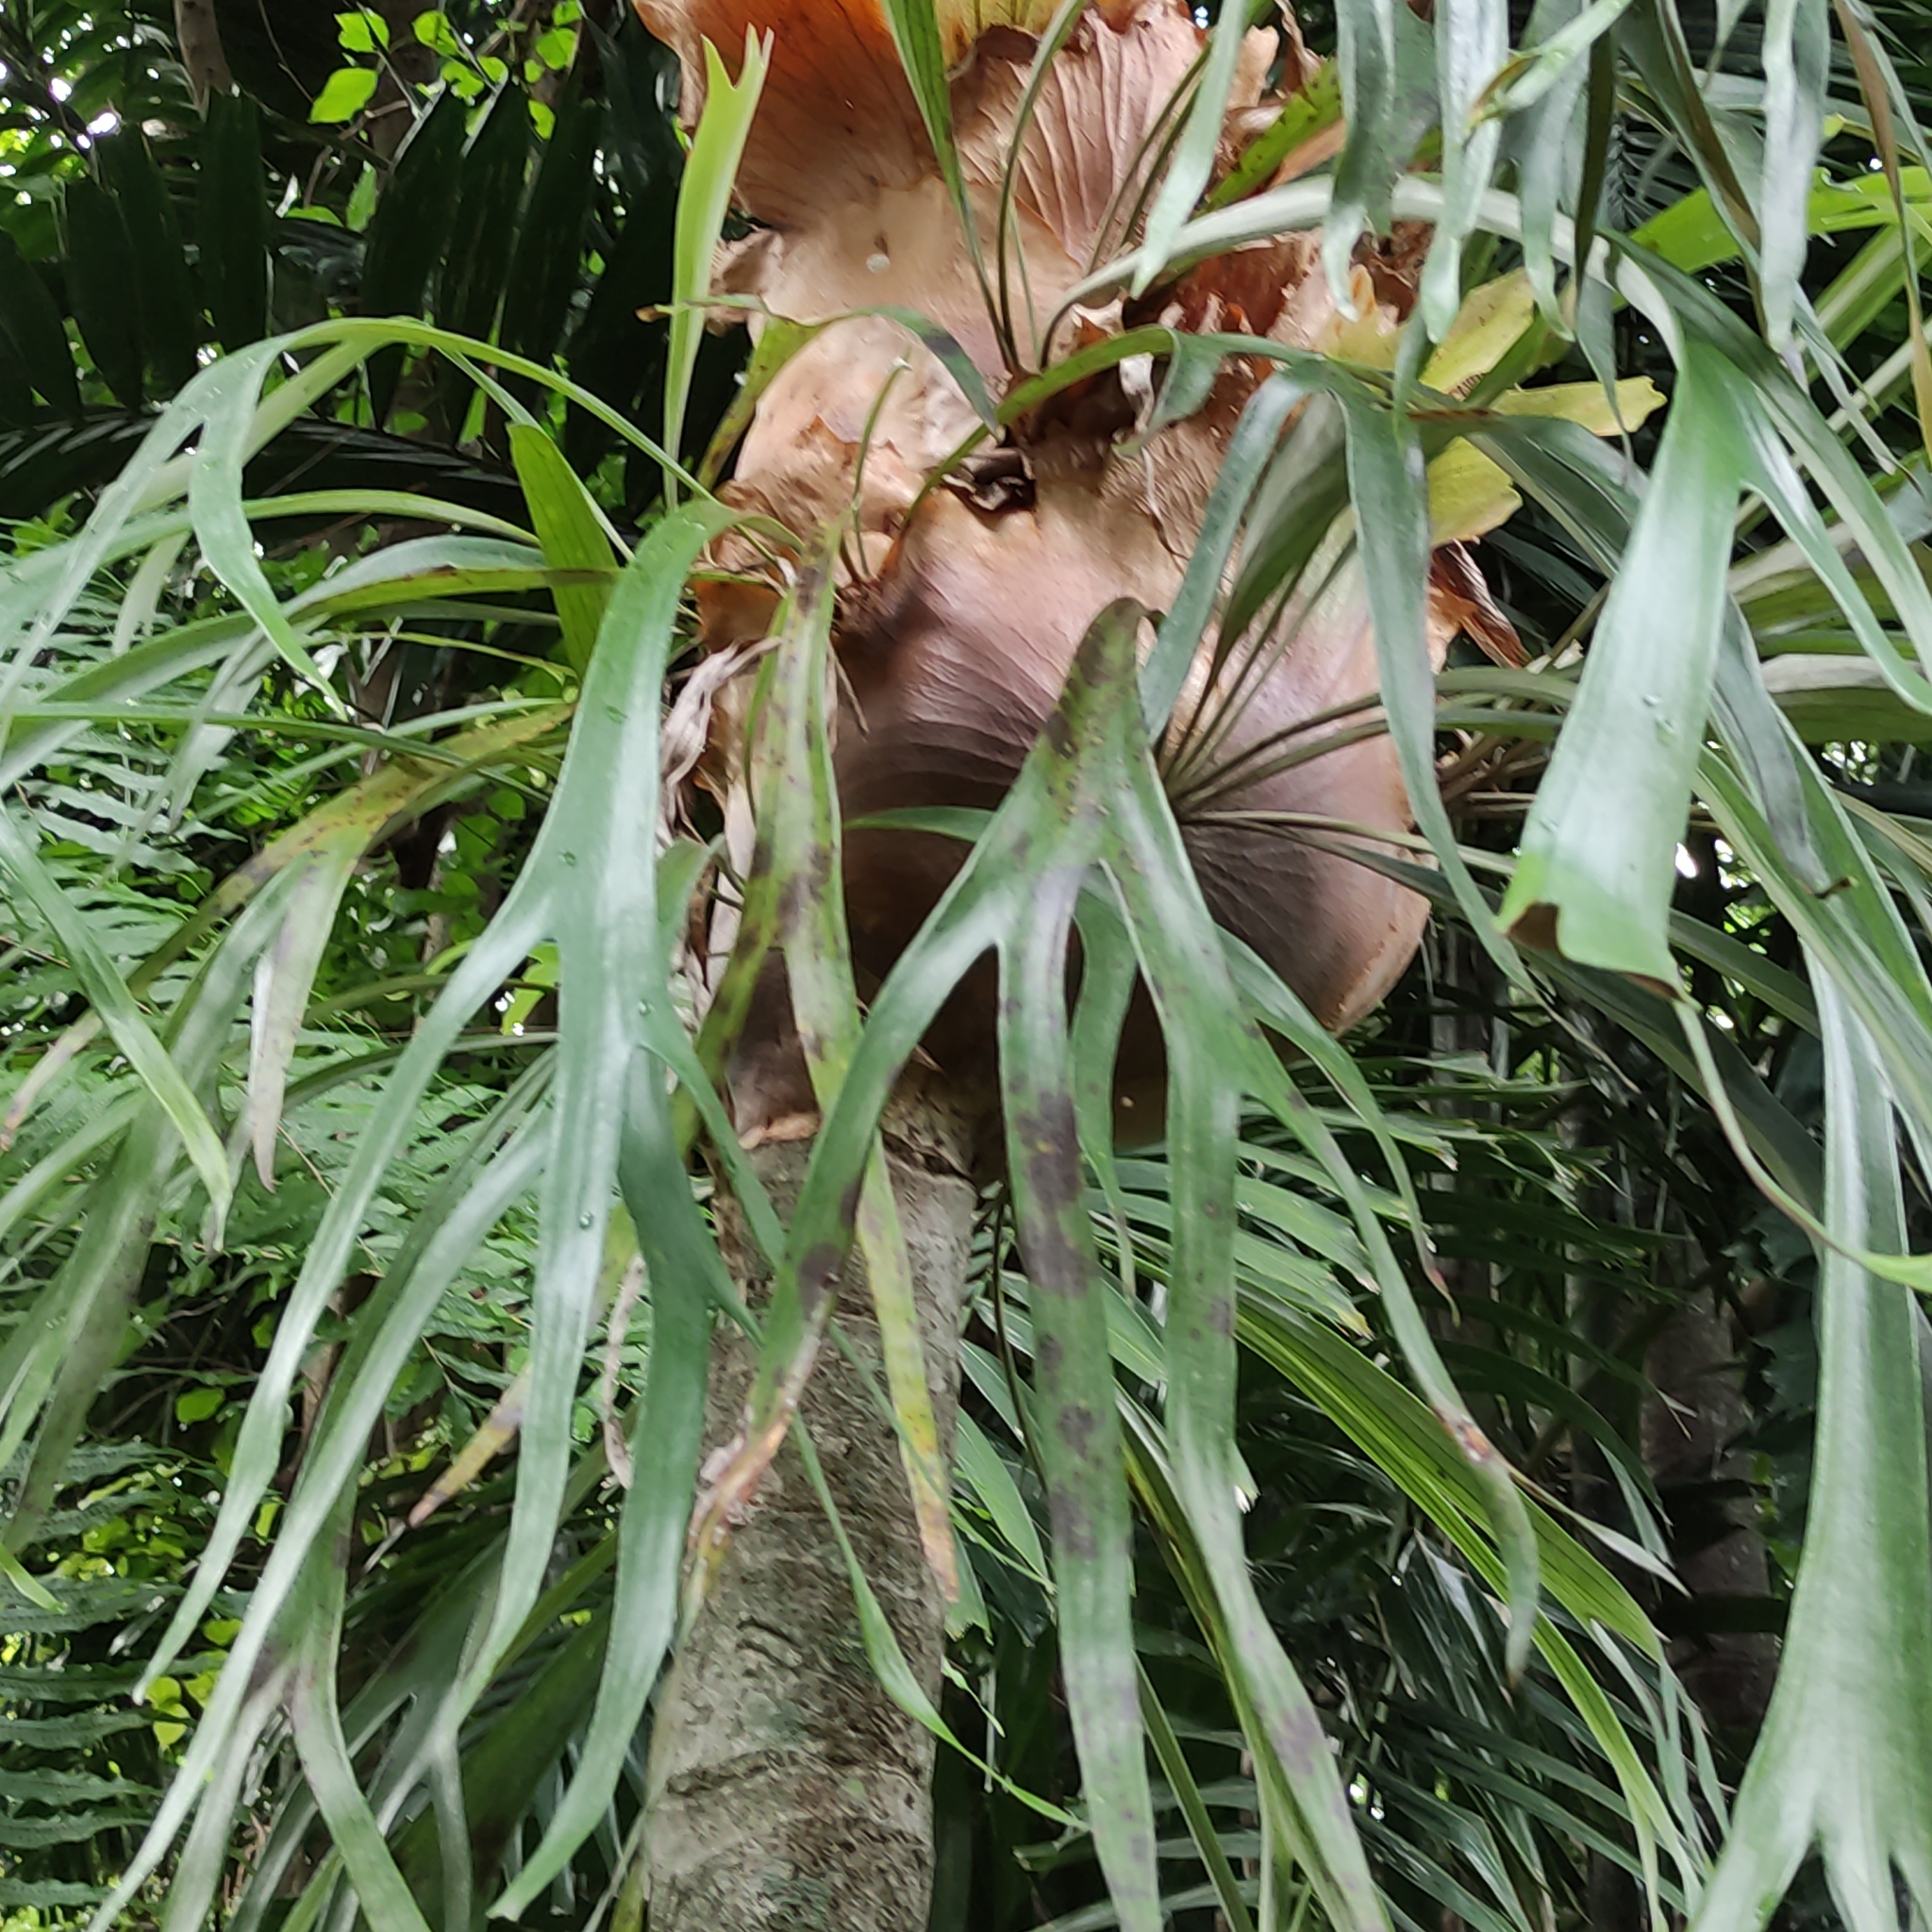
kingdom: Plantae
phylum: Tracheophyta
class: Polypodiopsida
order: Polypodiales
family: Polypodiaceae
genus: Platycerium
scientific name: Platycerium bifurcatum
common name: Elkhorn fern
